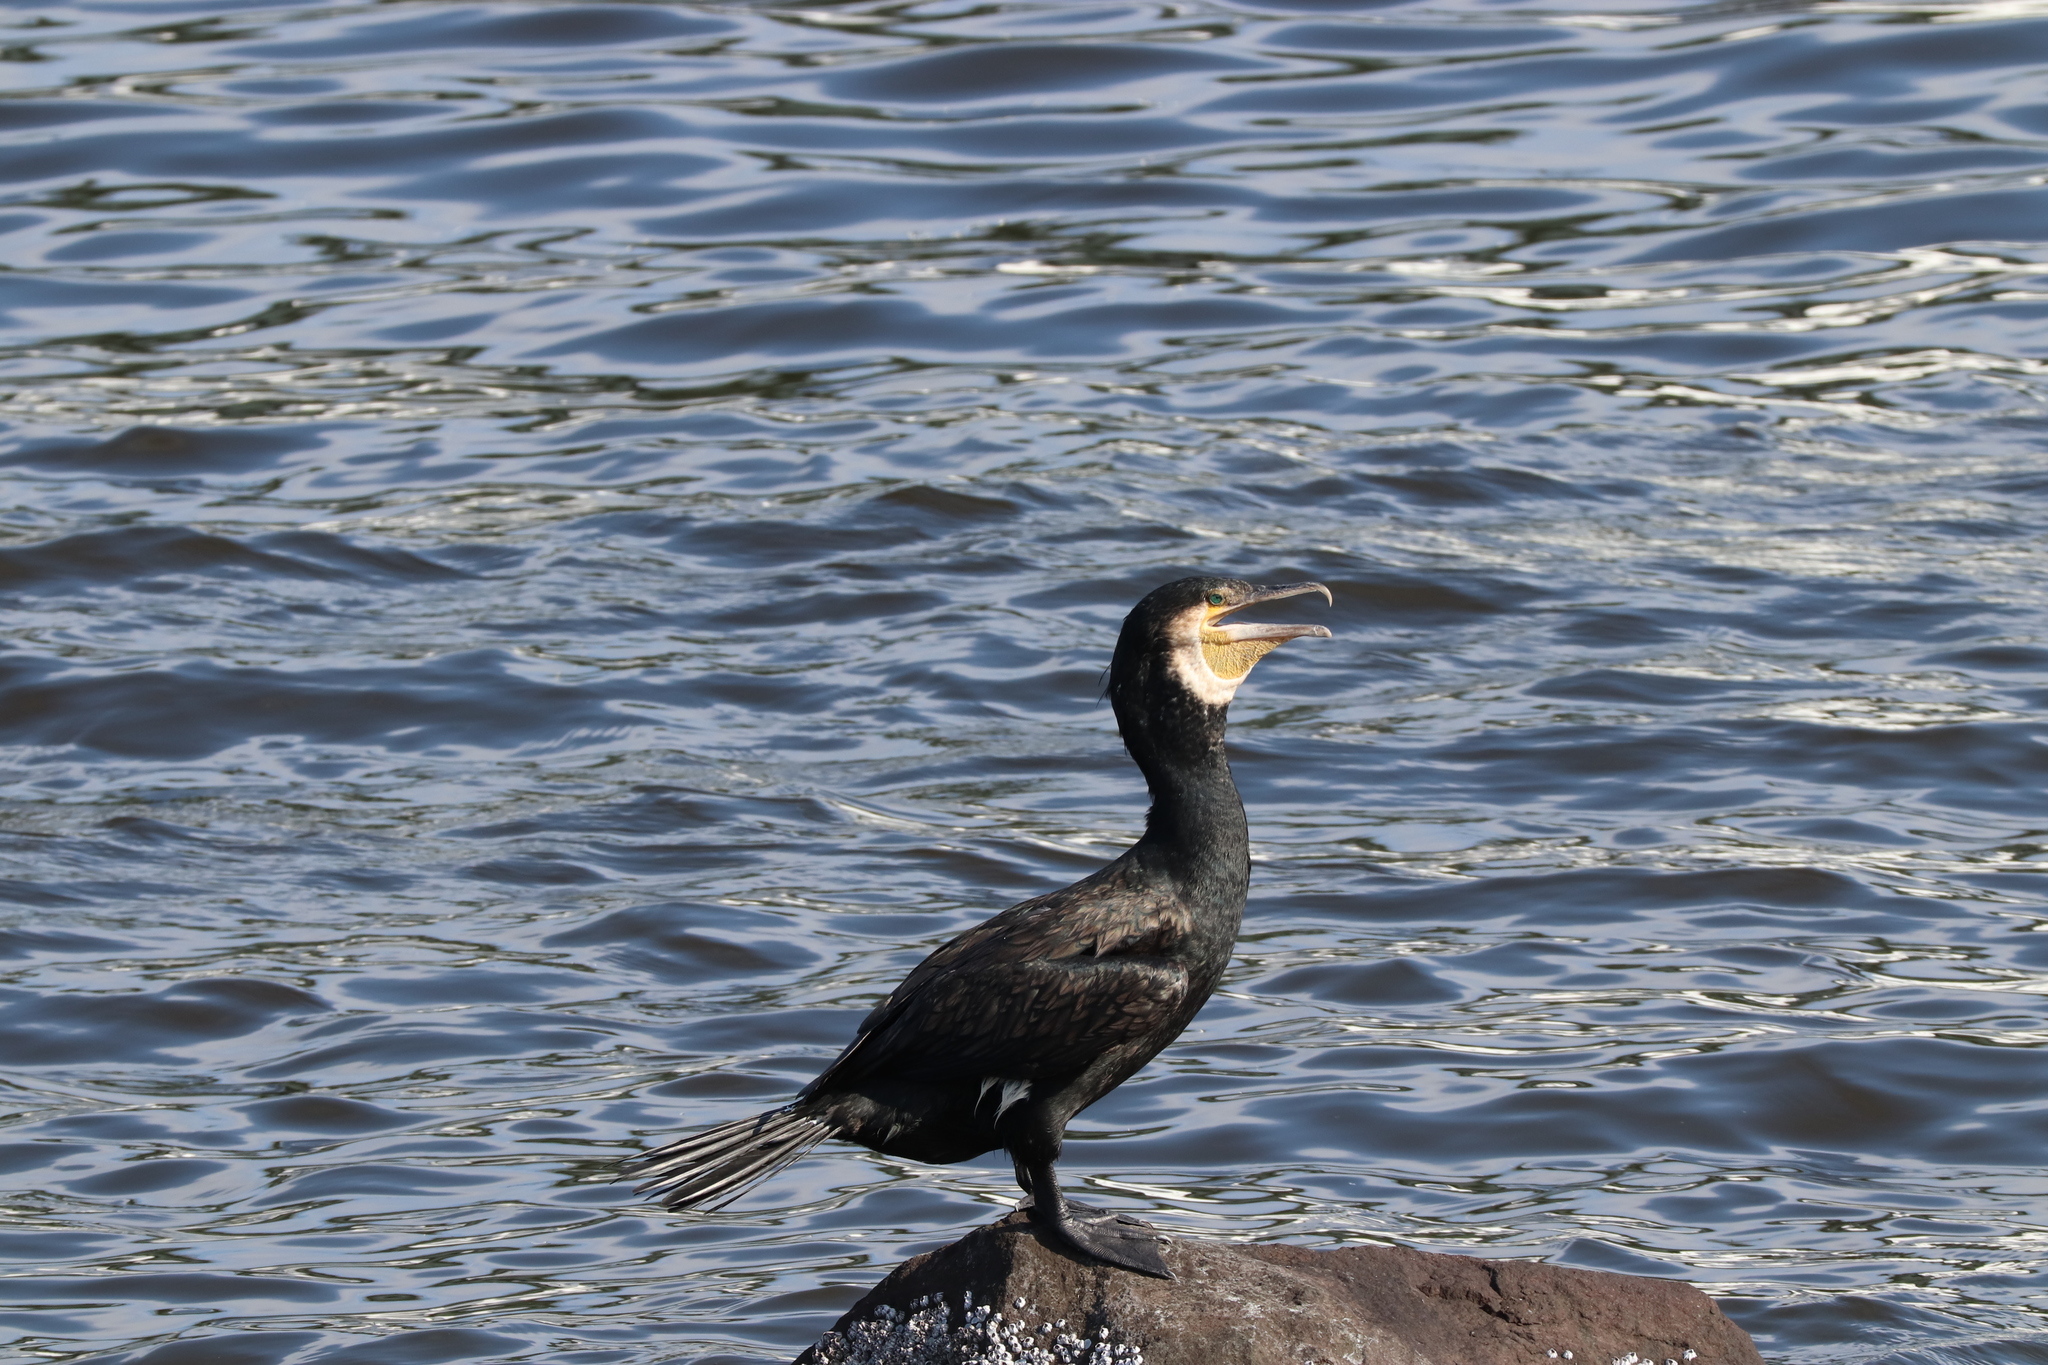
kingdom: Animalia
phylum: Chordata
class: Aves
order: Suliformes
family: Phalacrocoracidae
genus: Phalacrocorax
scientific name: Phalacrocorax carbo
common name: Great cormorant
